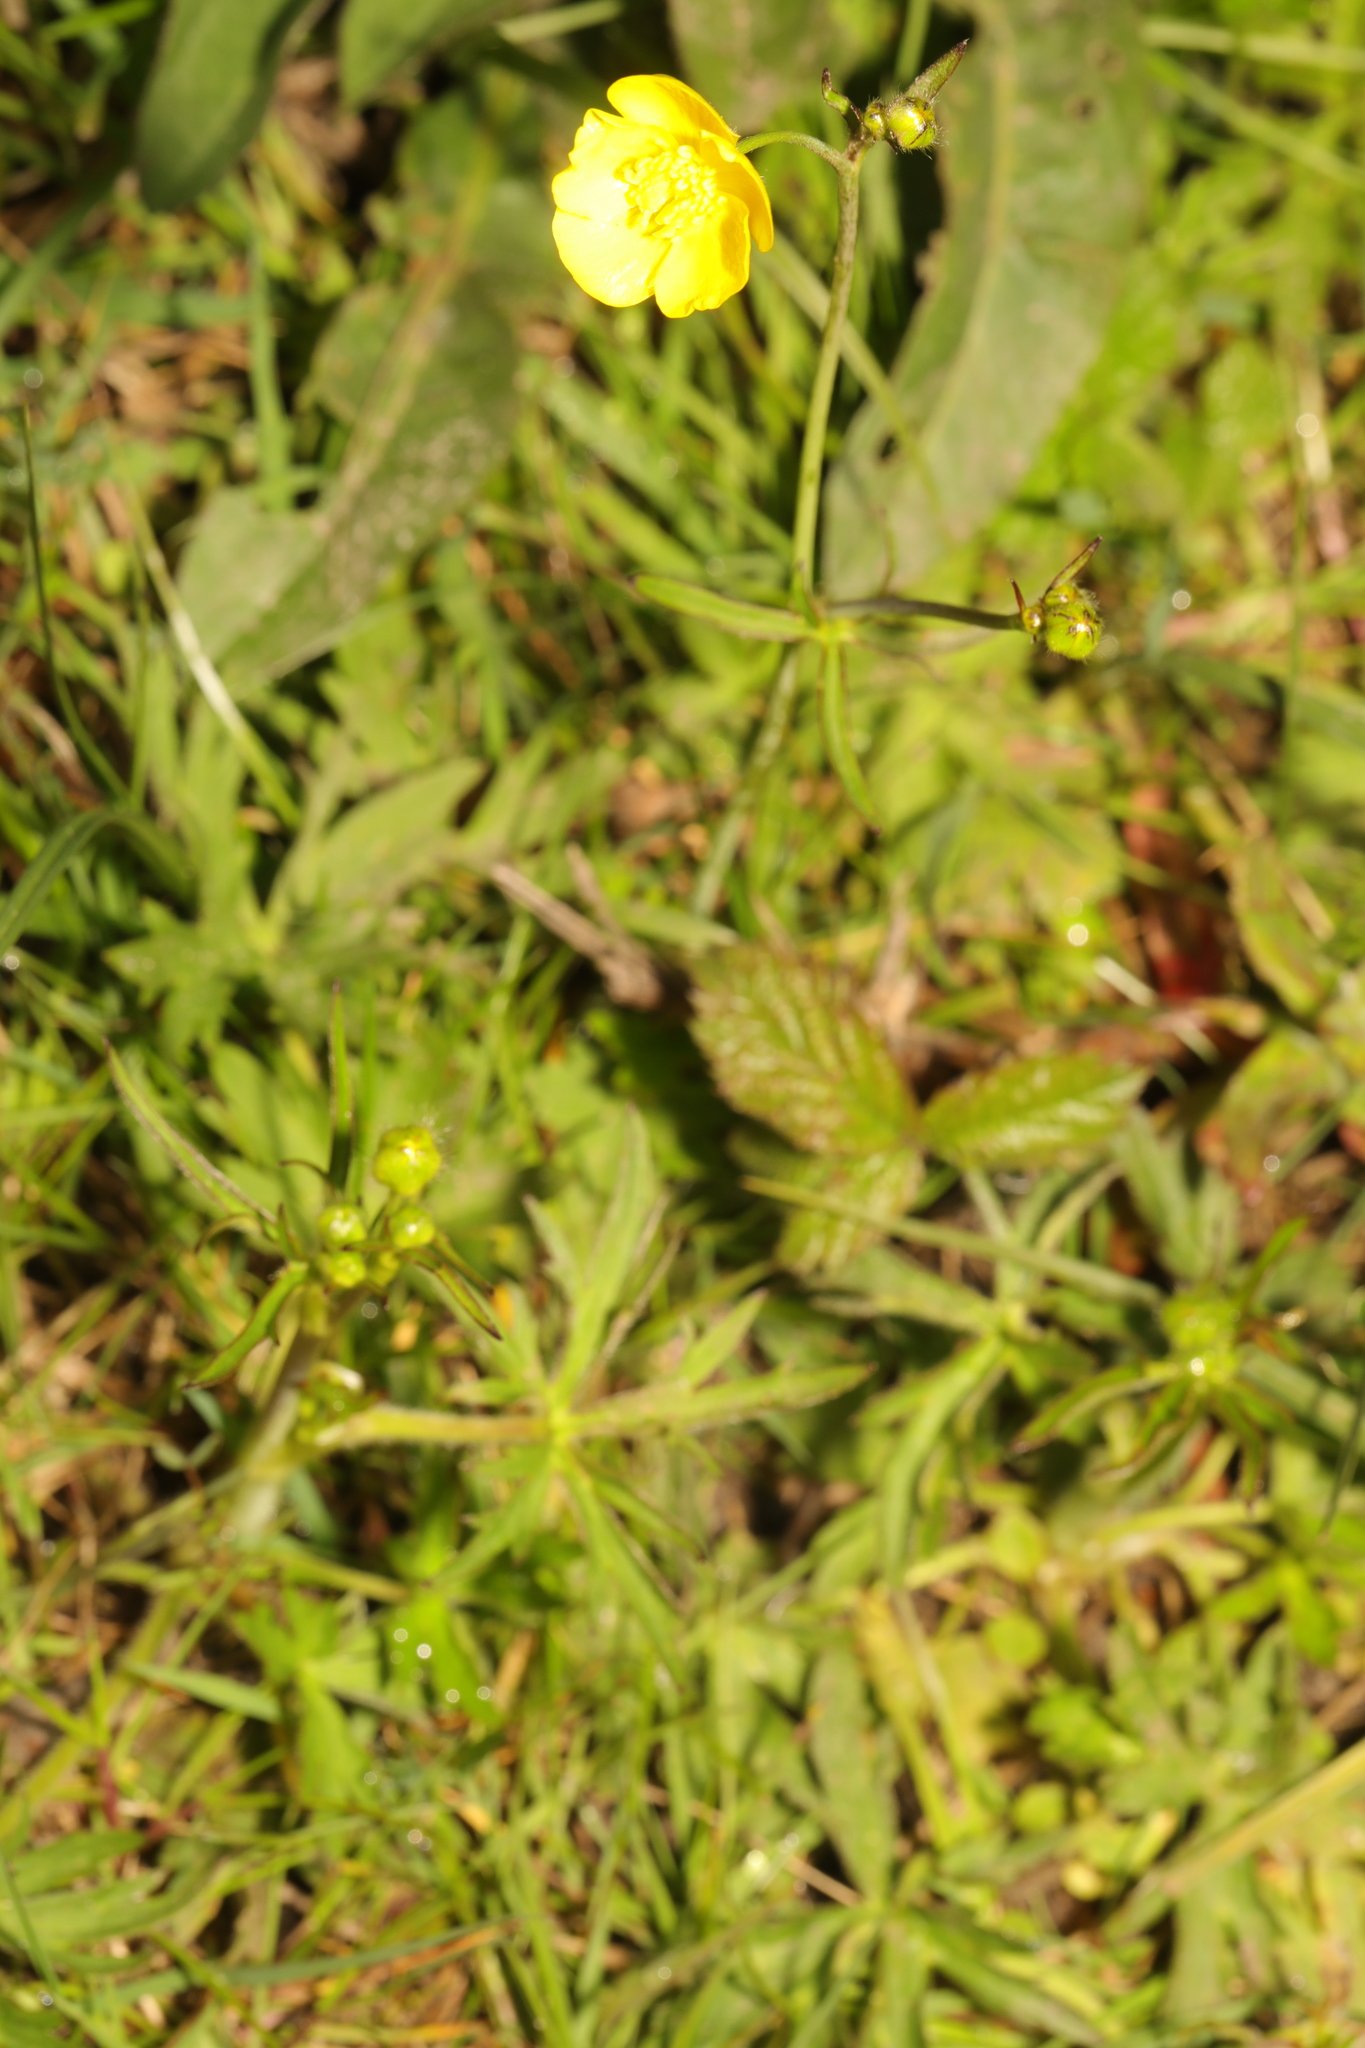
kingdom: Plantae
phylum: Tracheophyta
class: Magnoliopsida
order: Ranunculales
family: Ranunculaceae
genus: Ranunculus
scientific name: Ranunculus acris
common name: Meadow buttercup
